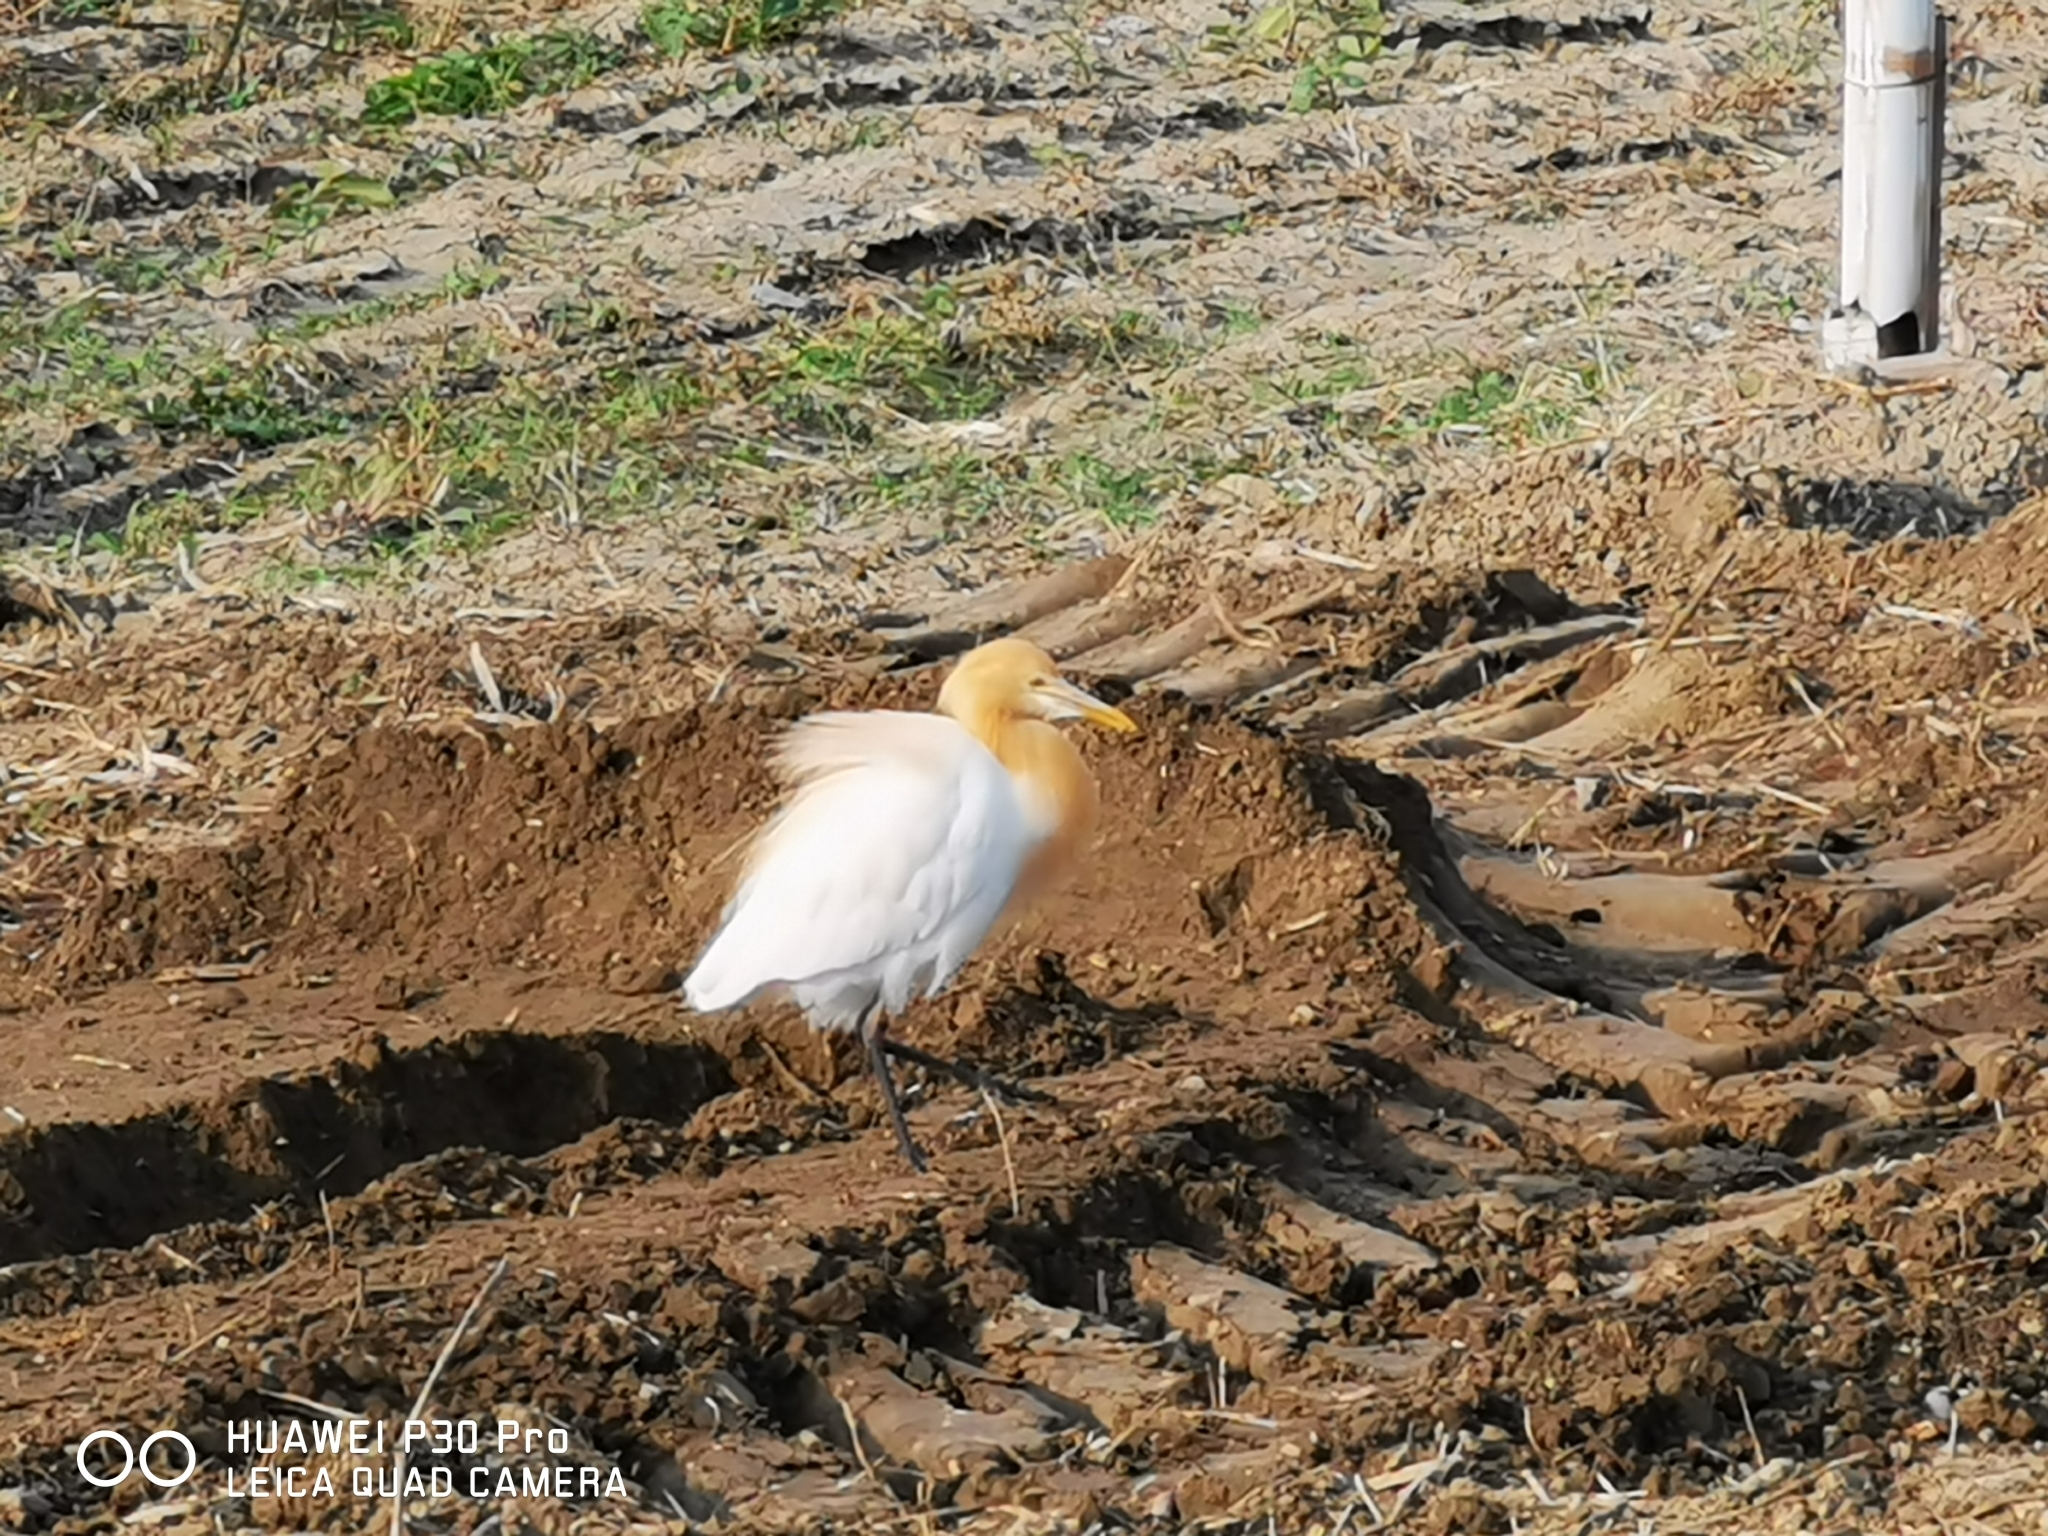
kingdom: Animalia
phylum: Chordata
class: Aves
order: Pelecaniformes
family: Ardeidae
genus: Bubulcus
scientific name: Bubulcus coromandus
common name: Eastern cattle egret
